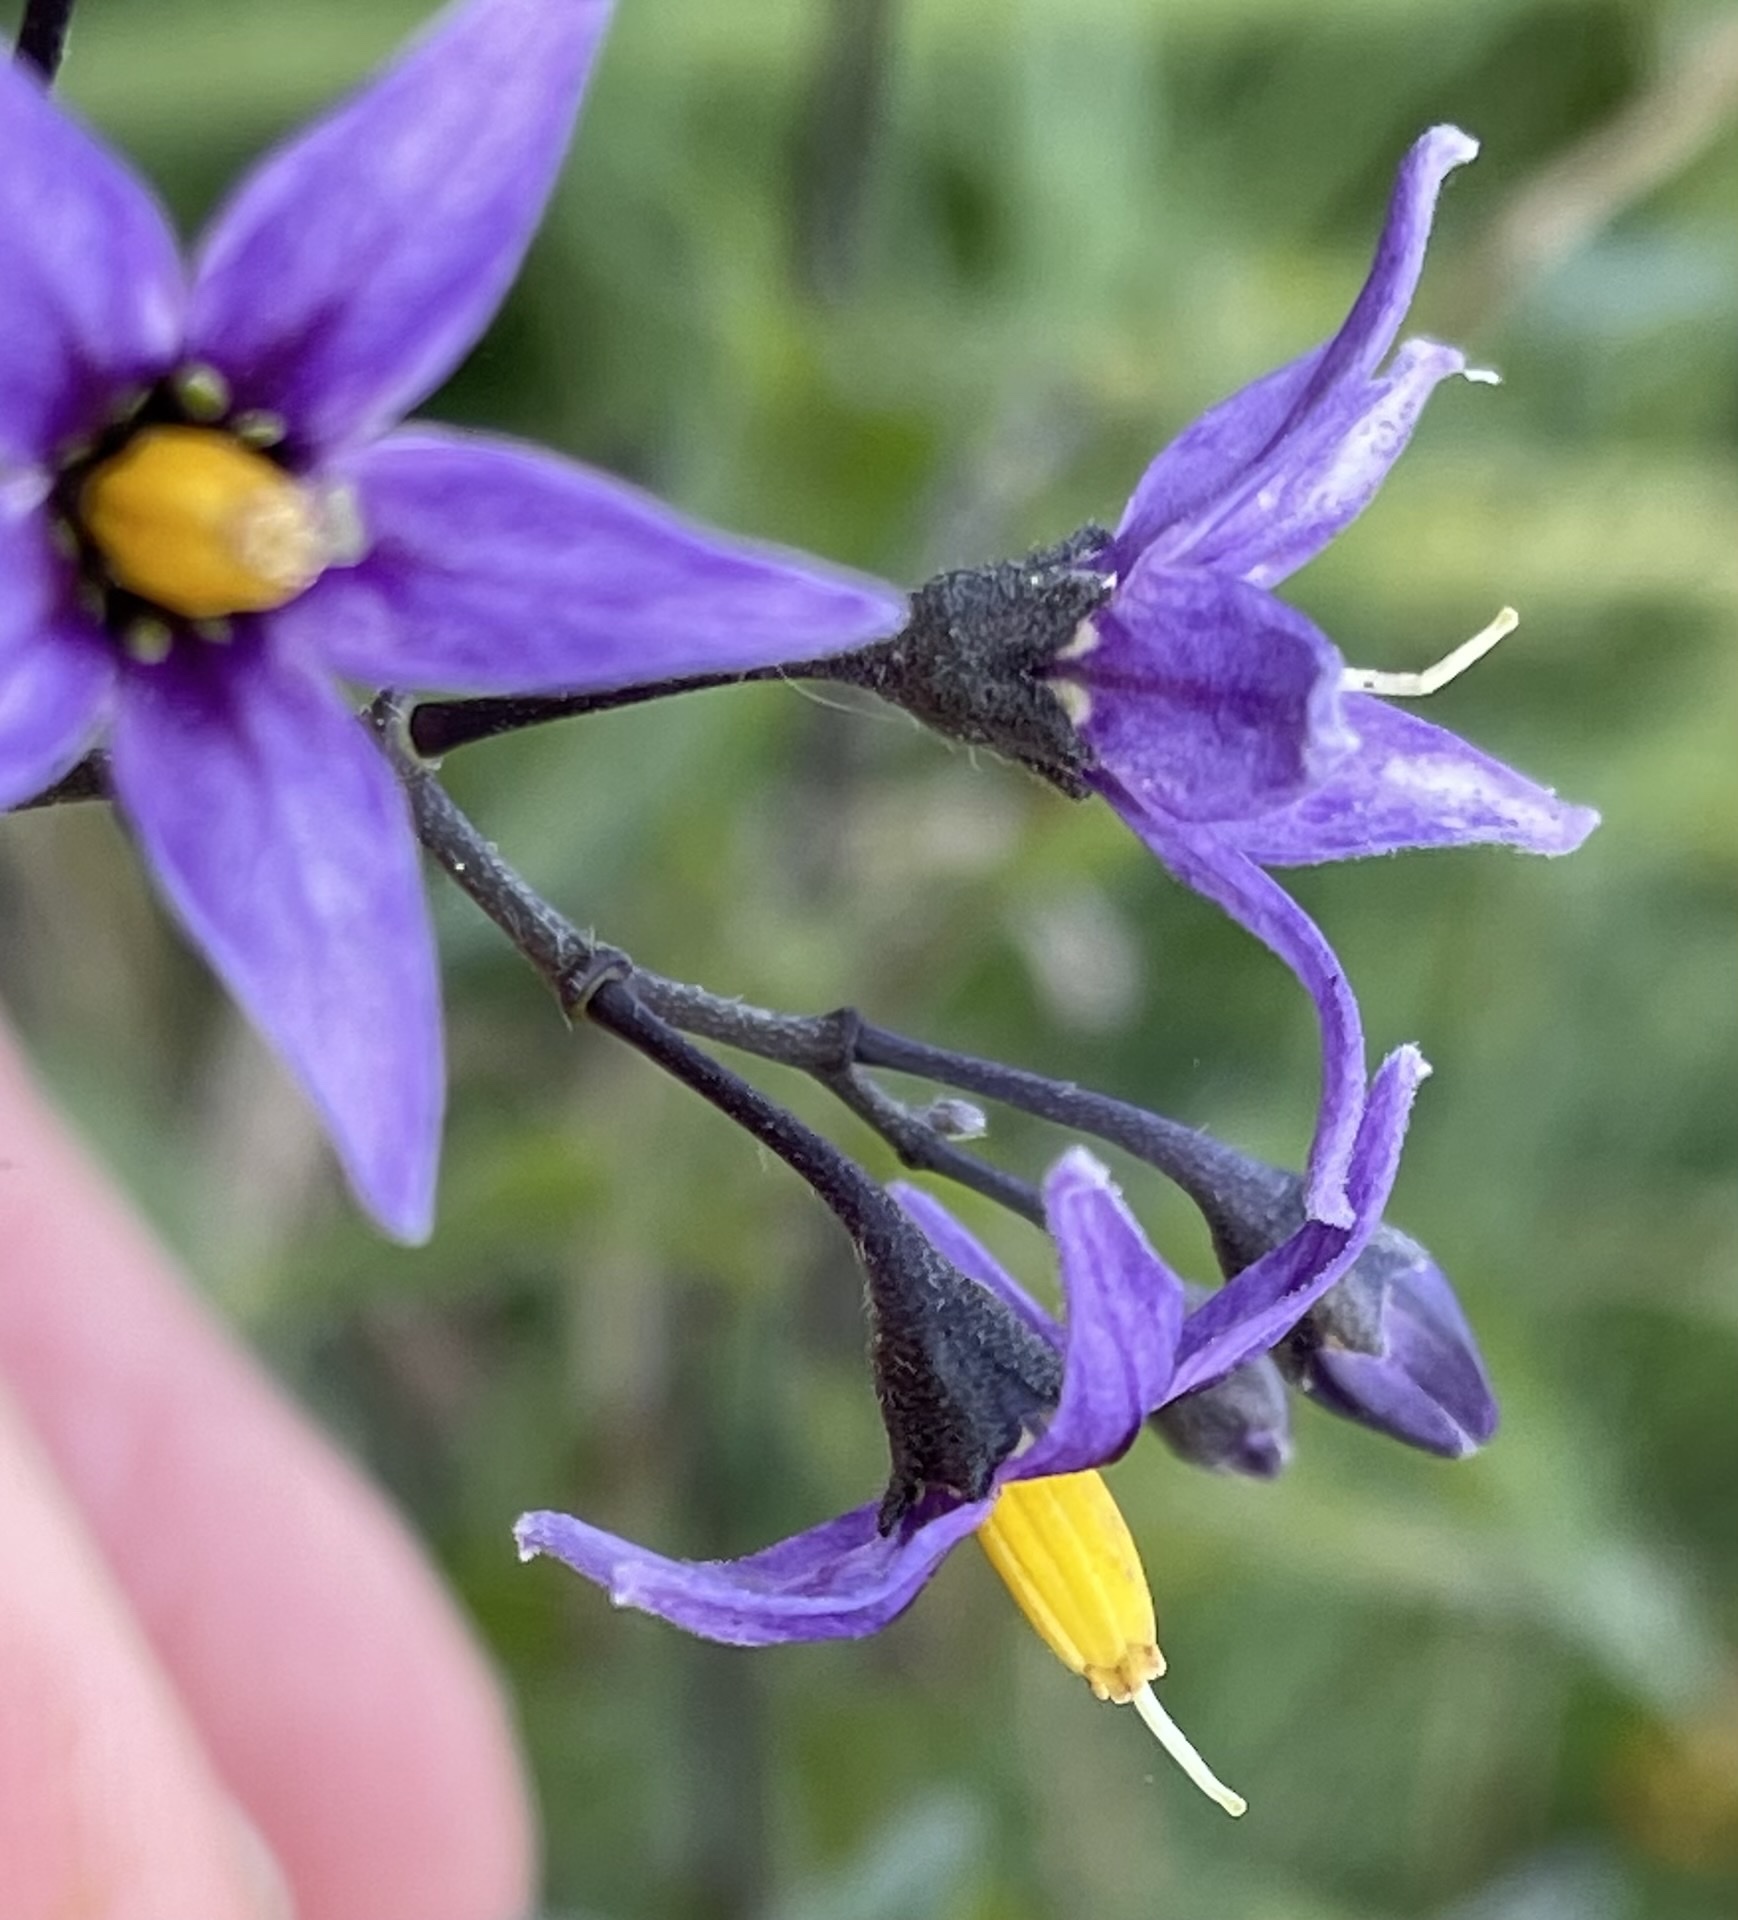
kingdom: Plantae
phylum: Tracheophyta
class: Magnoliopsida
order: Solanales
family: Solanaceae
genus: Solanum
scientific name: Solanum dulcamara
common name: Climbing nightshade
